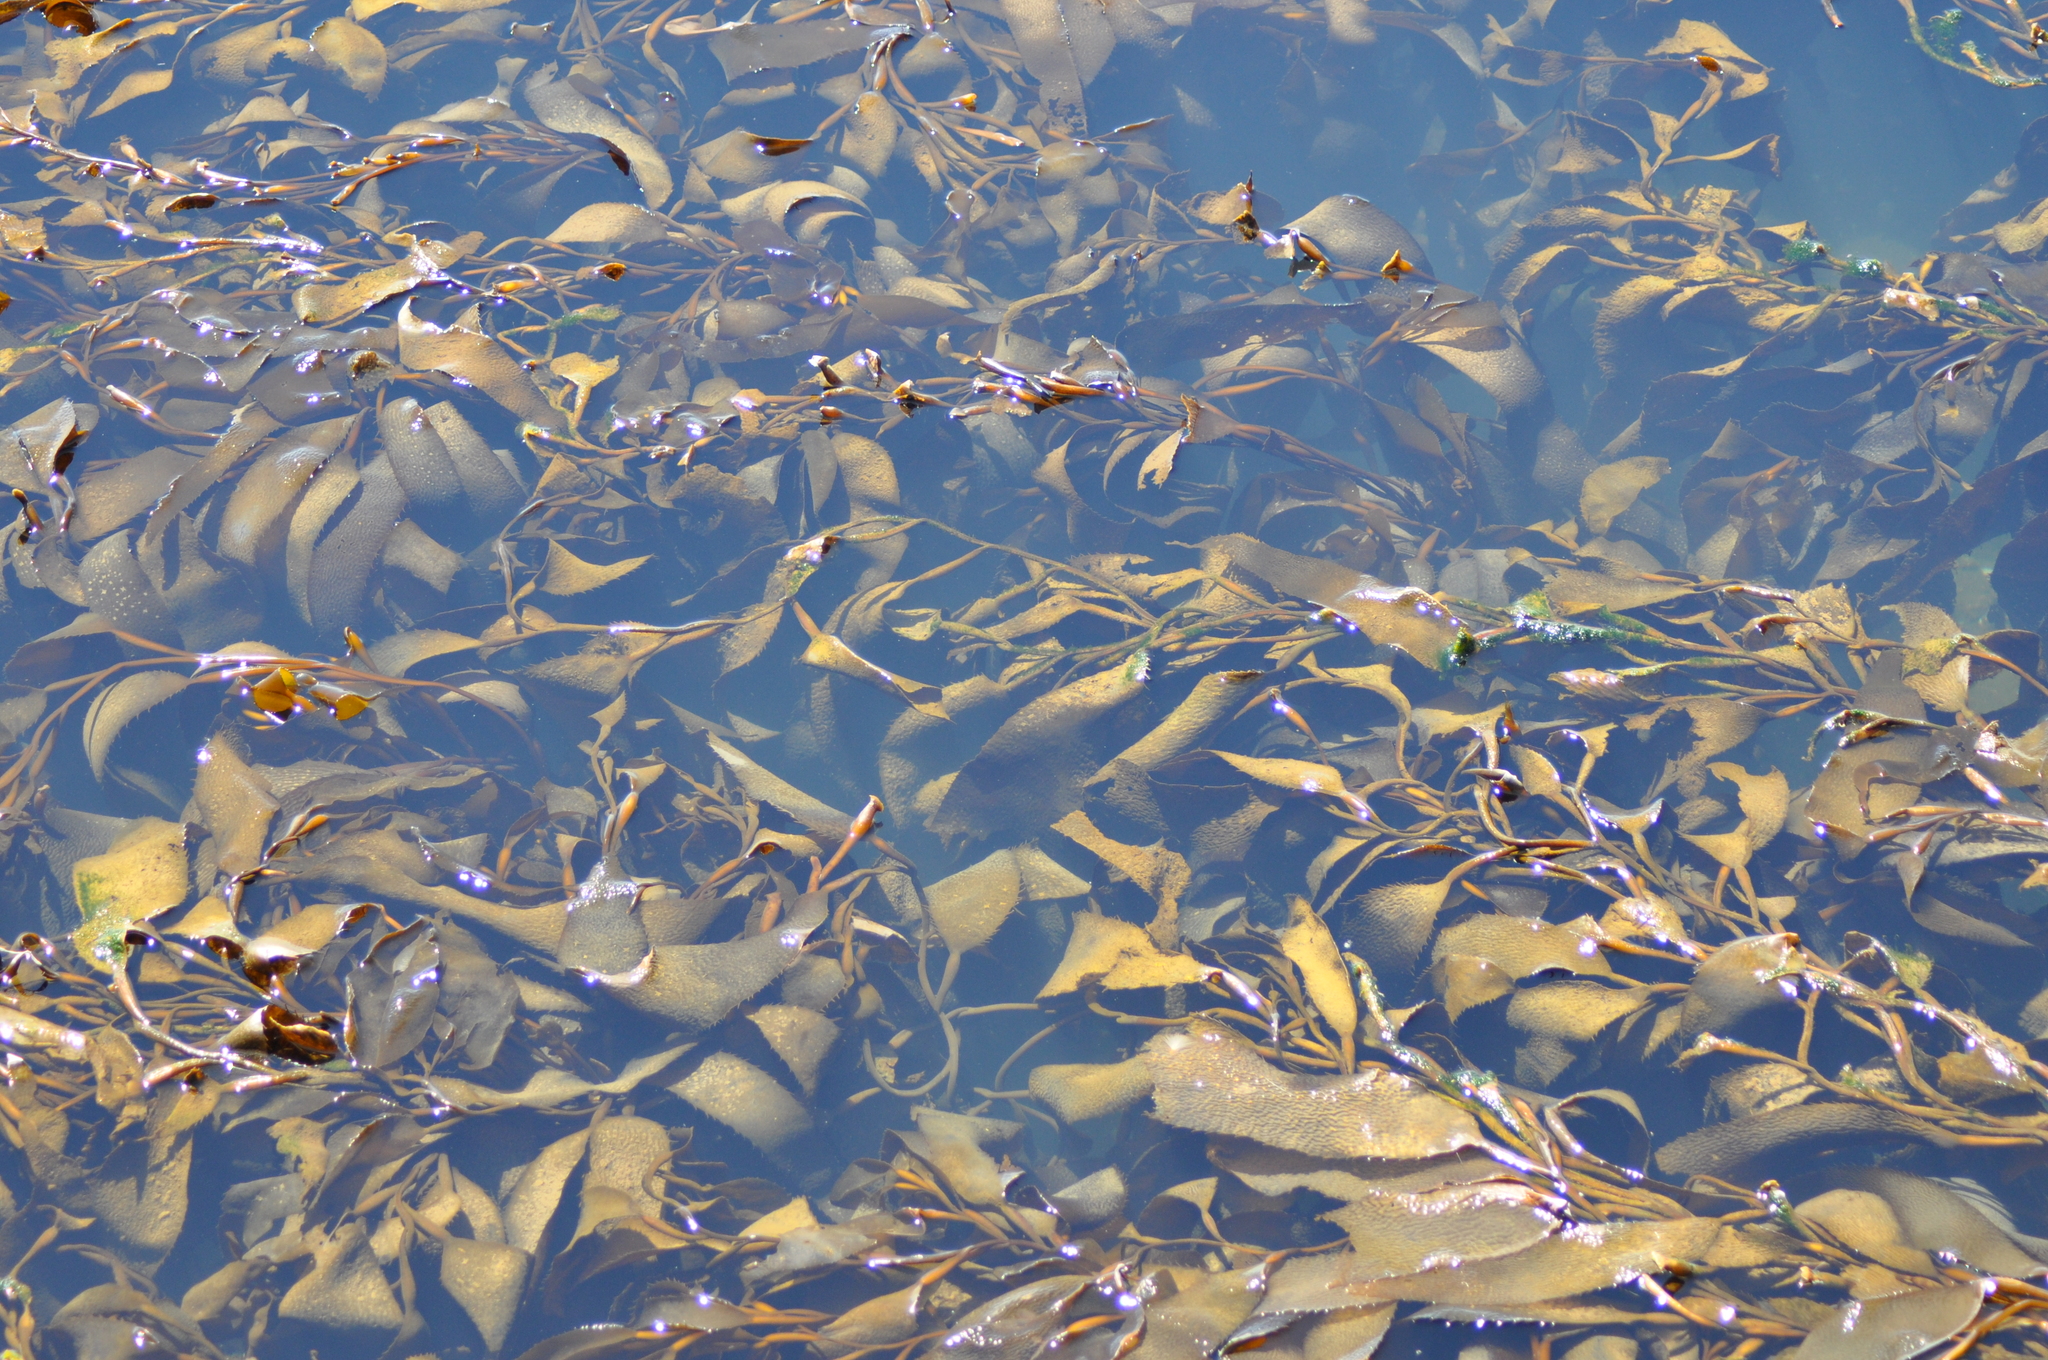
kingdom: Chromista
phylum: Ochrophyta
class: Phaeophyceae
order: Laminariales
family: Laminariaceae
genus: Macrocystis
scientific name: Macrocystis pyrifera
